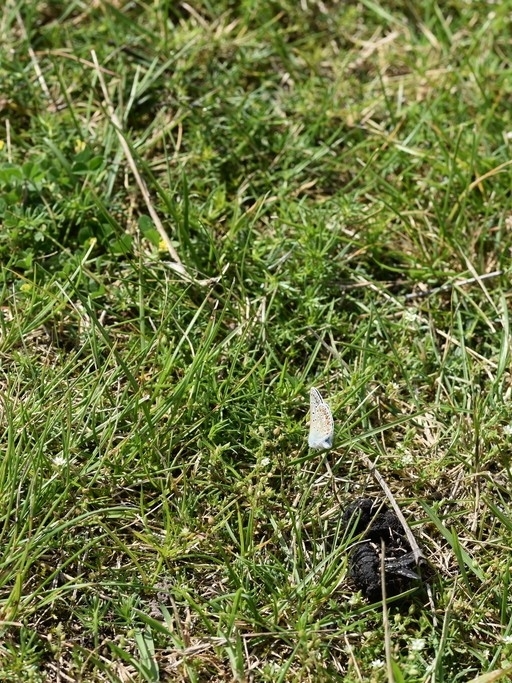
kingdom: Animalia
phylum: Arthropoda
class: Insecta
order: Lepidoptera
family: Lycaenidae
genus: Polyommatus
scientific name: Polyommatus icarus
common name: Common blue
